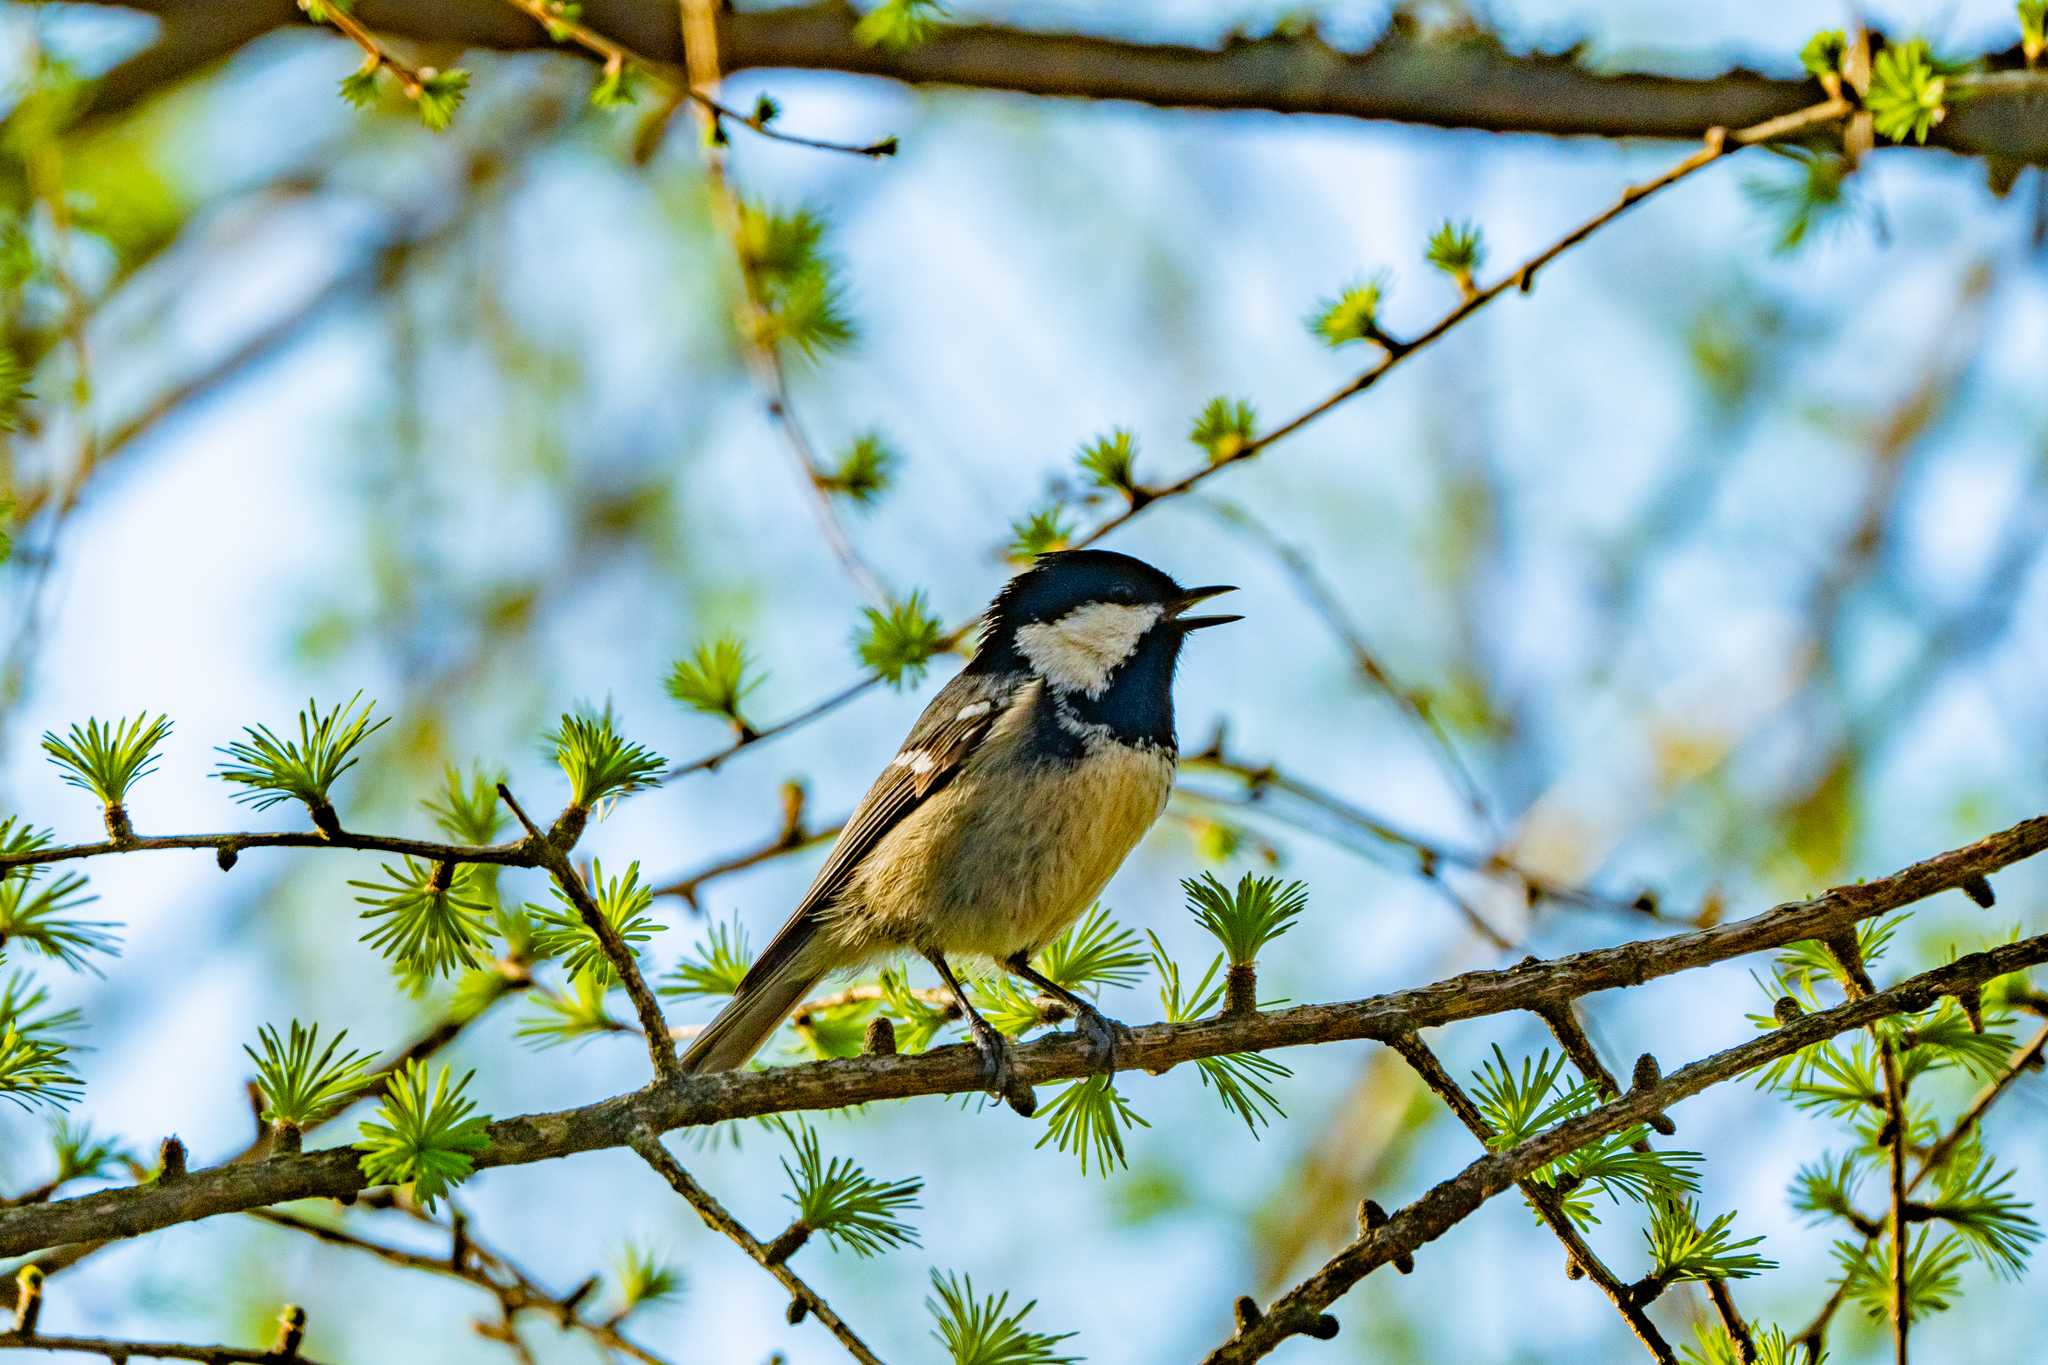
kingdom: Animalia
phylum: Chordata
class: Aves
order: Passeriformes
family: Paridae
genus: Periparus
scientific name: Periparus ater
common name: Coal tit
